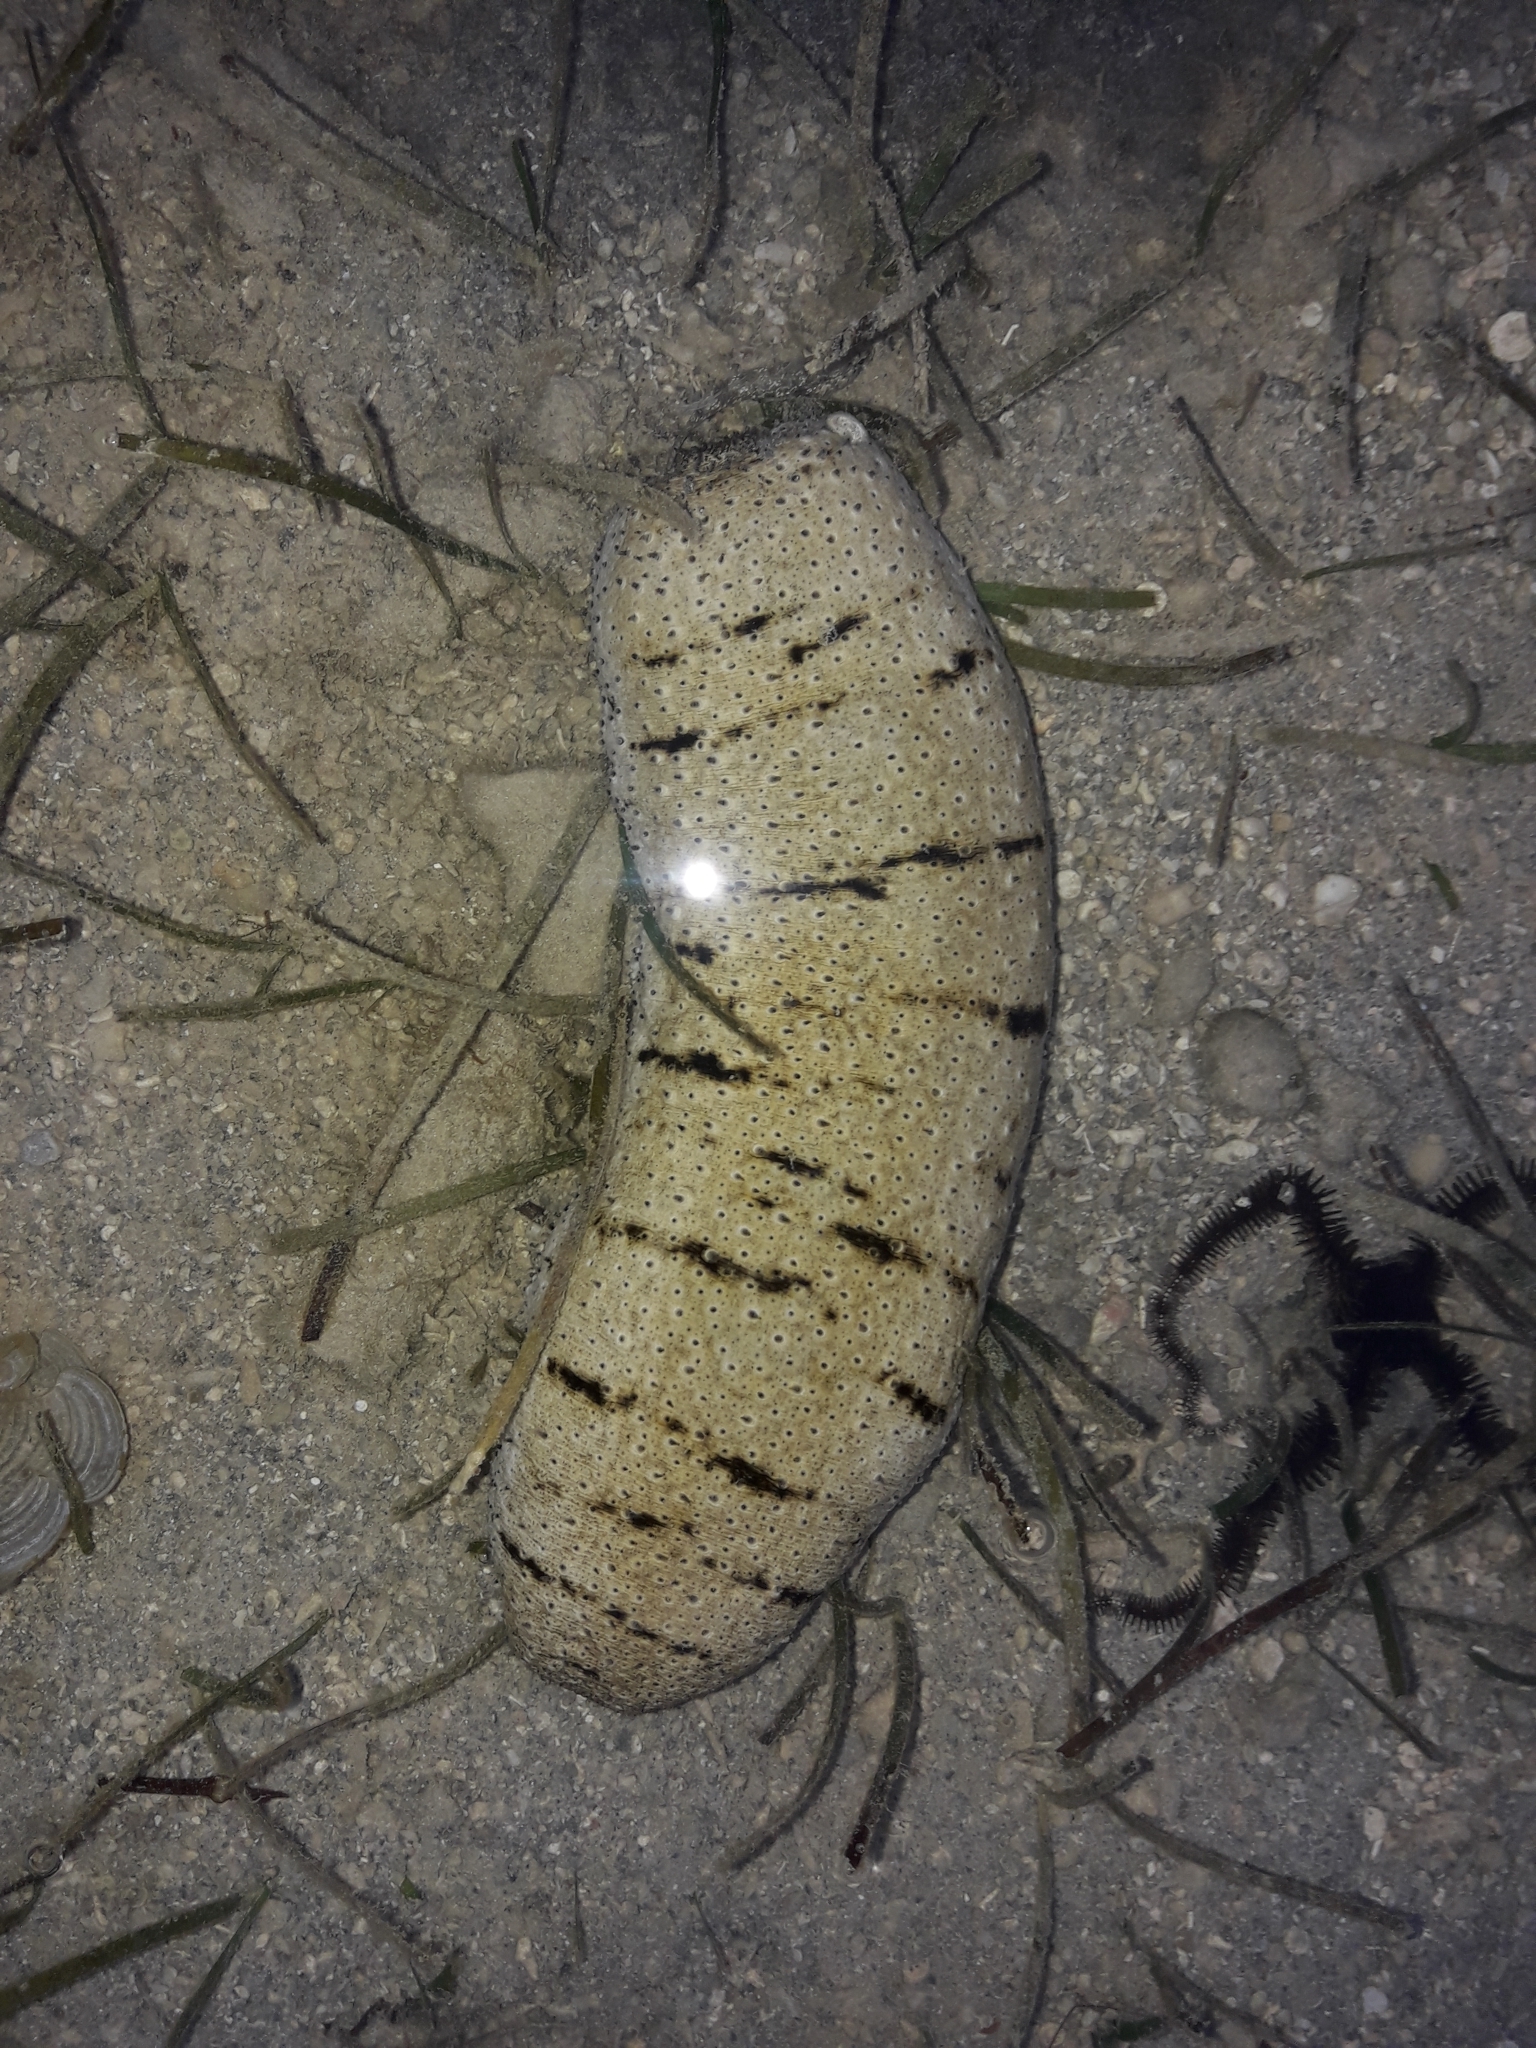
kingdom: Animalia
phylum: Echinodermata
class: Holothuroidea
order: Holothuriida
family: Holothuriidae
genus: Holothuria
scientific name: Holothuria scabra
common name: Golden sandfish
